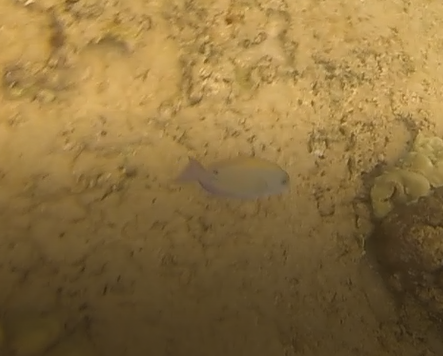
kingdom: Animalia
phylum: Chordata
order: Perciformes
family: Acanthuridae
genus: Acanthurus
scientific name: Acanthurus nigrofuscus
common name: Blackspot surgeonfish
